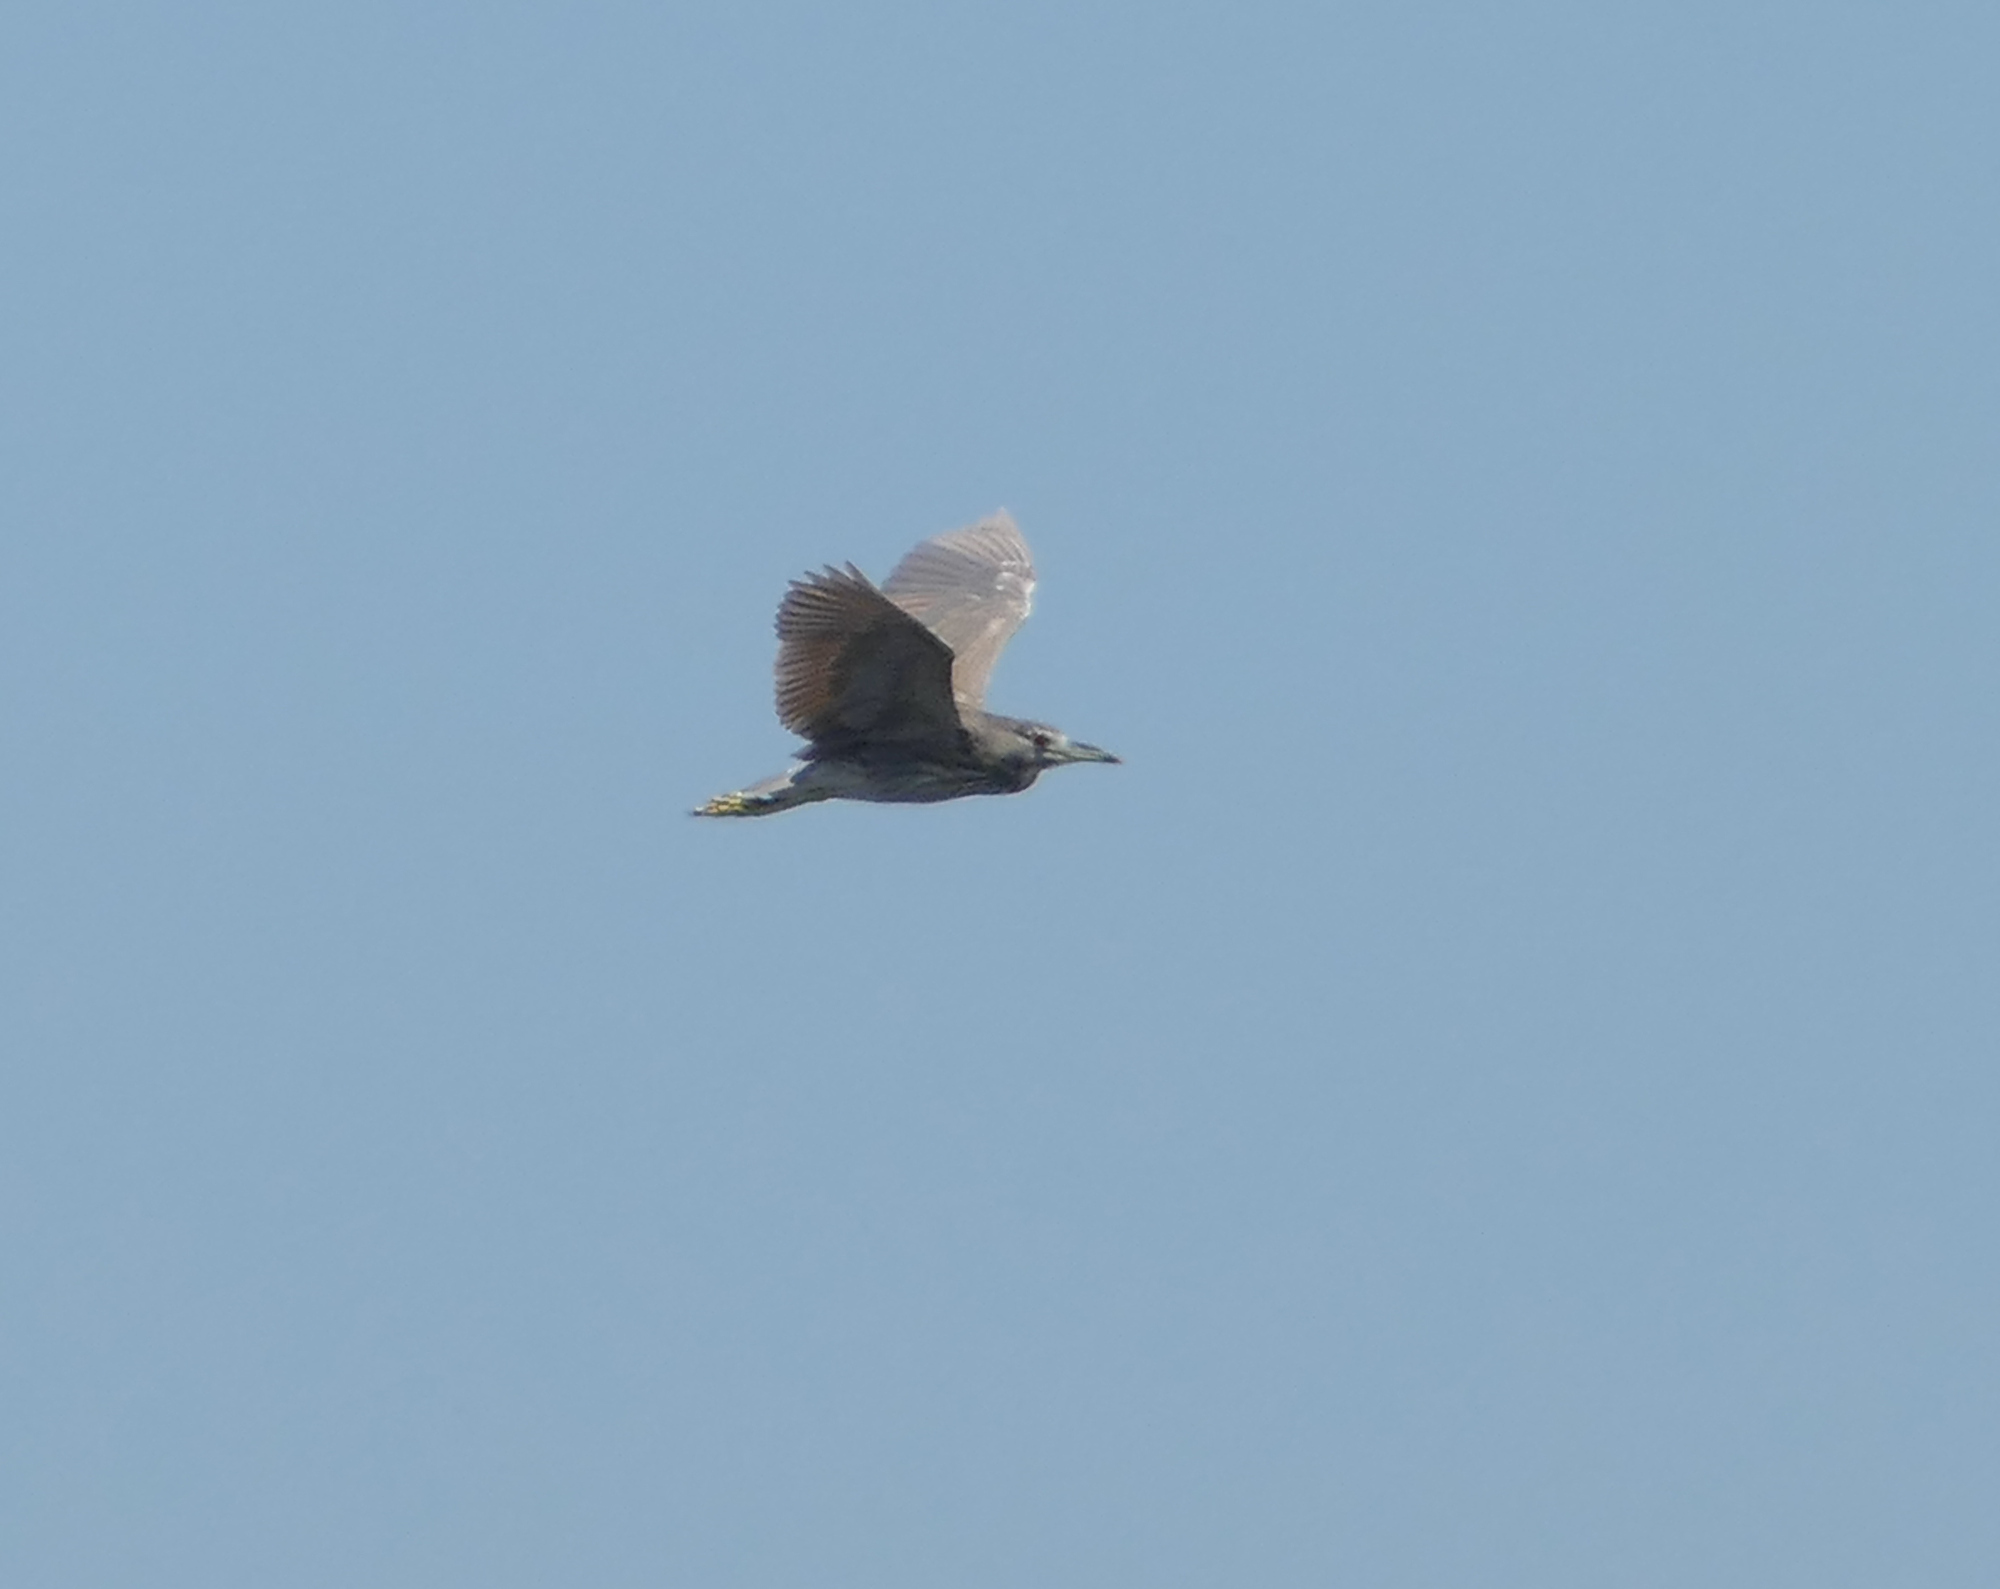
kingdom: Animalia
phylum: Chordata
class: Aves
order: Pelecaniformes
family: Ardeidae
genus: Nycticorax
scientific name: Nycticorax nycticorax
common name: Black-crowned night heron
